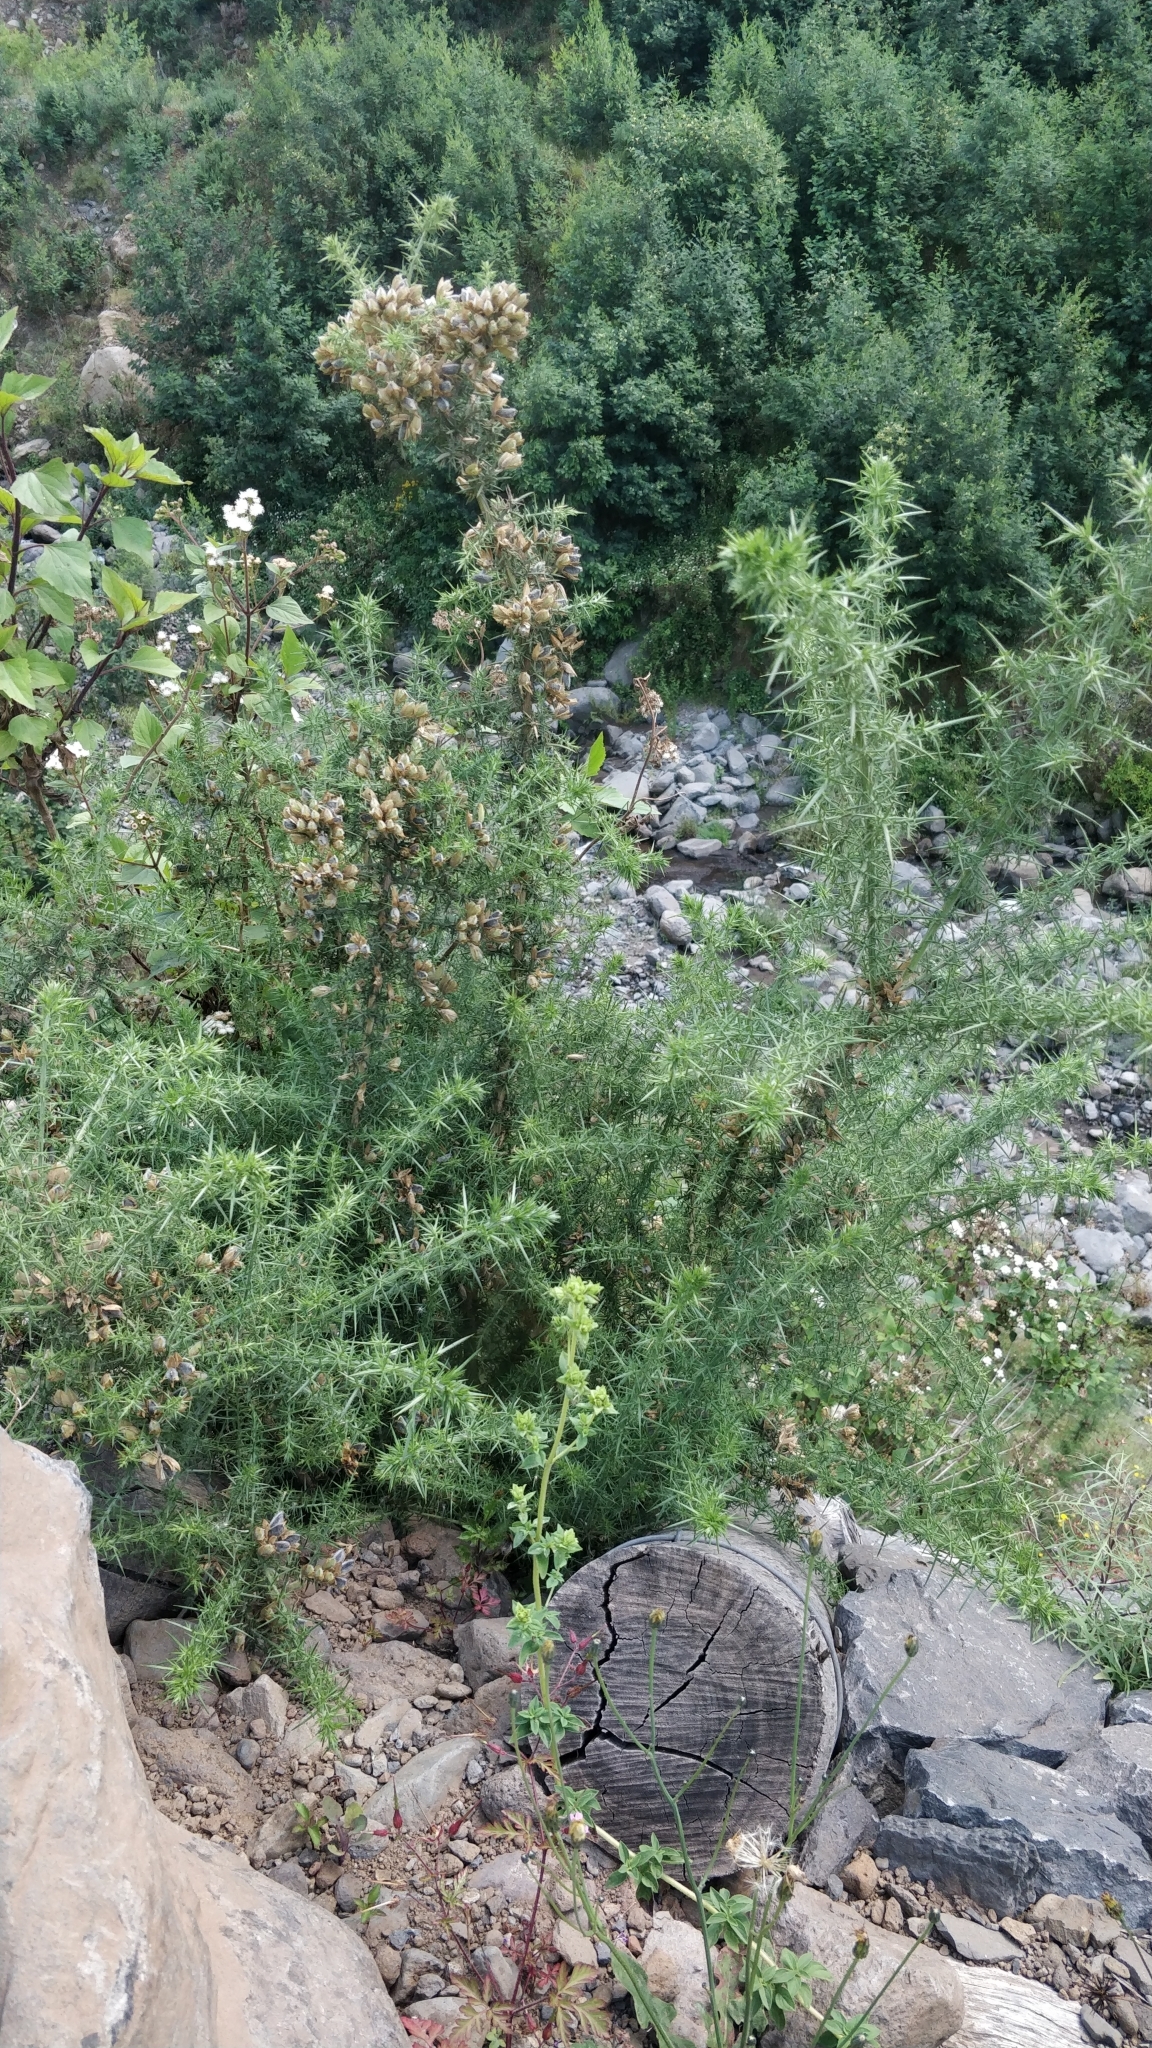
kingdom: Plantae
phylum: Tracheophyta
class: Magnoliopsida
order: Fabales
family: Fabaceae
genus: Ulex
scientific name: Ulex europaeus
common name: Common gorse
